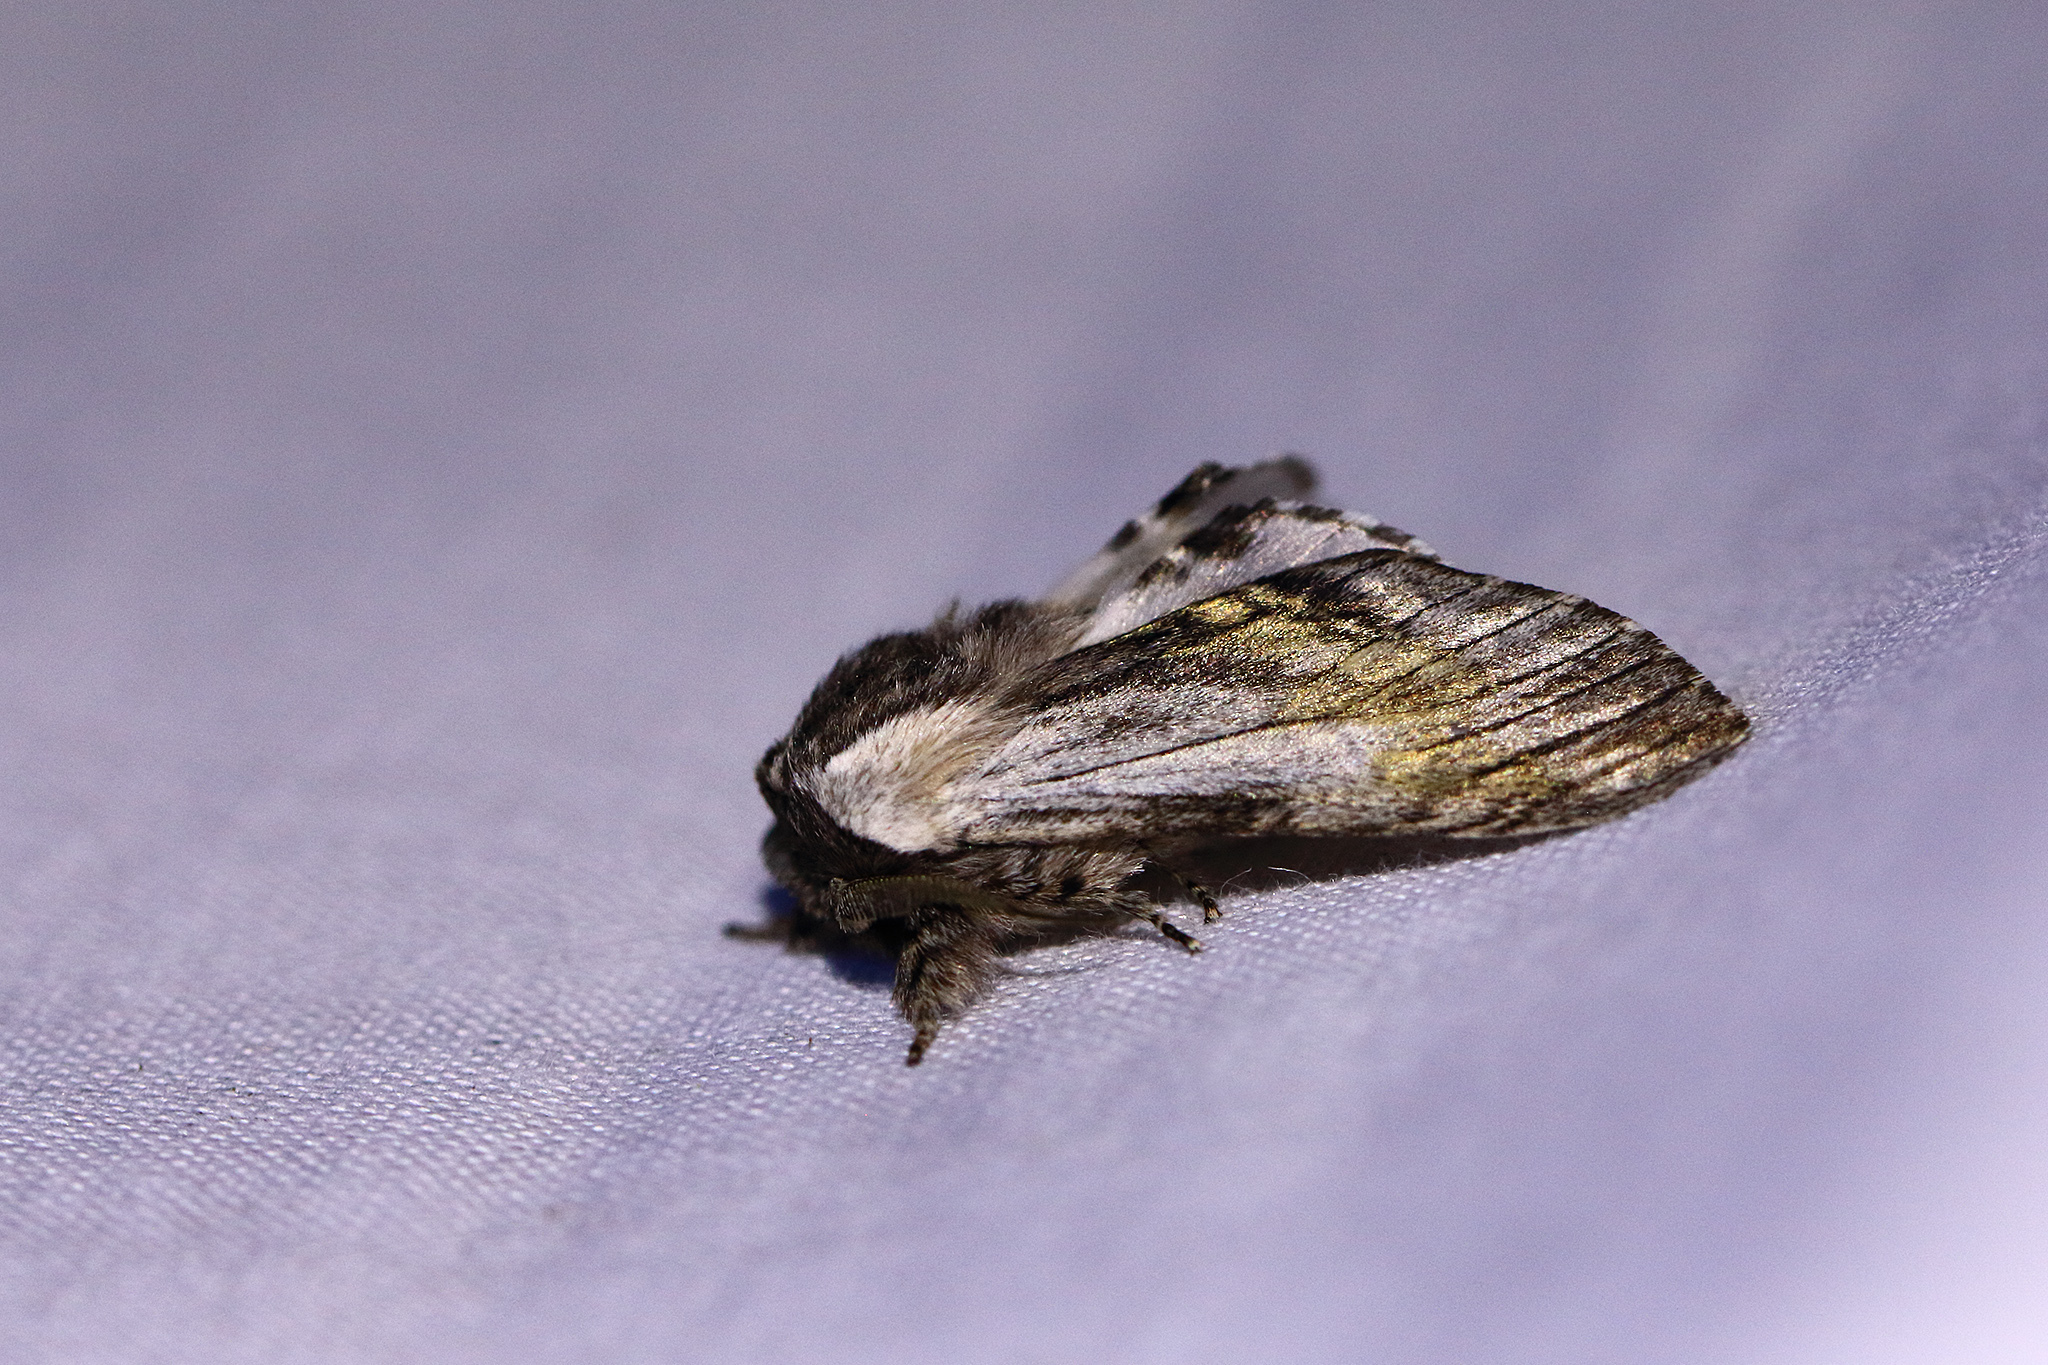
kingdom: Animalia
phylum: Arthropoda
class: Insecta
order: Lepidoptera
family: Notodontidae
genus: Harpyia
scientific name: Harpyia milhauseri
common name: Tawny prominent
